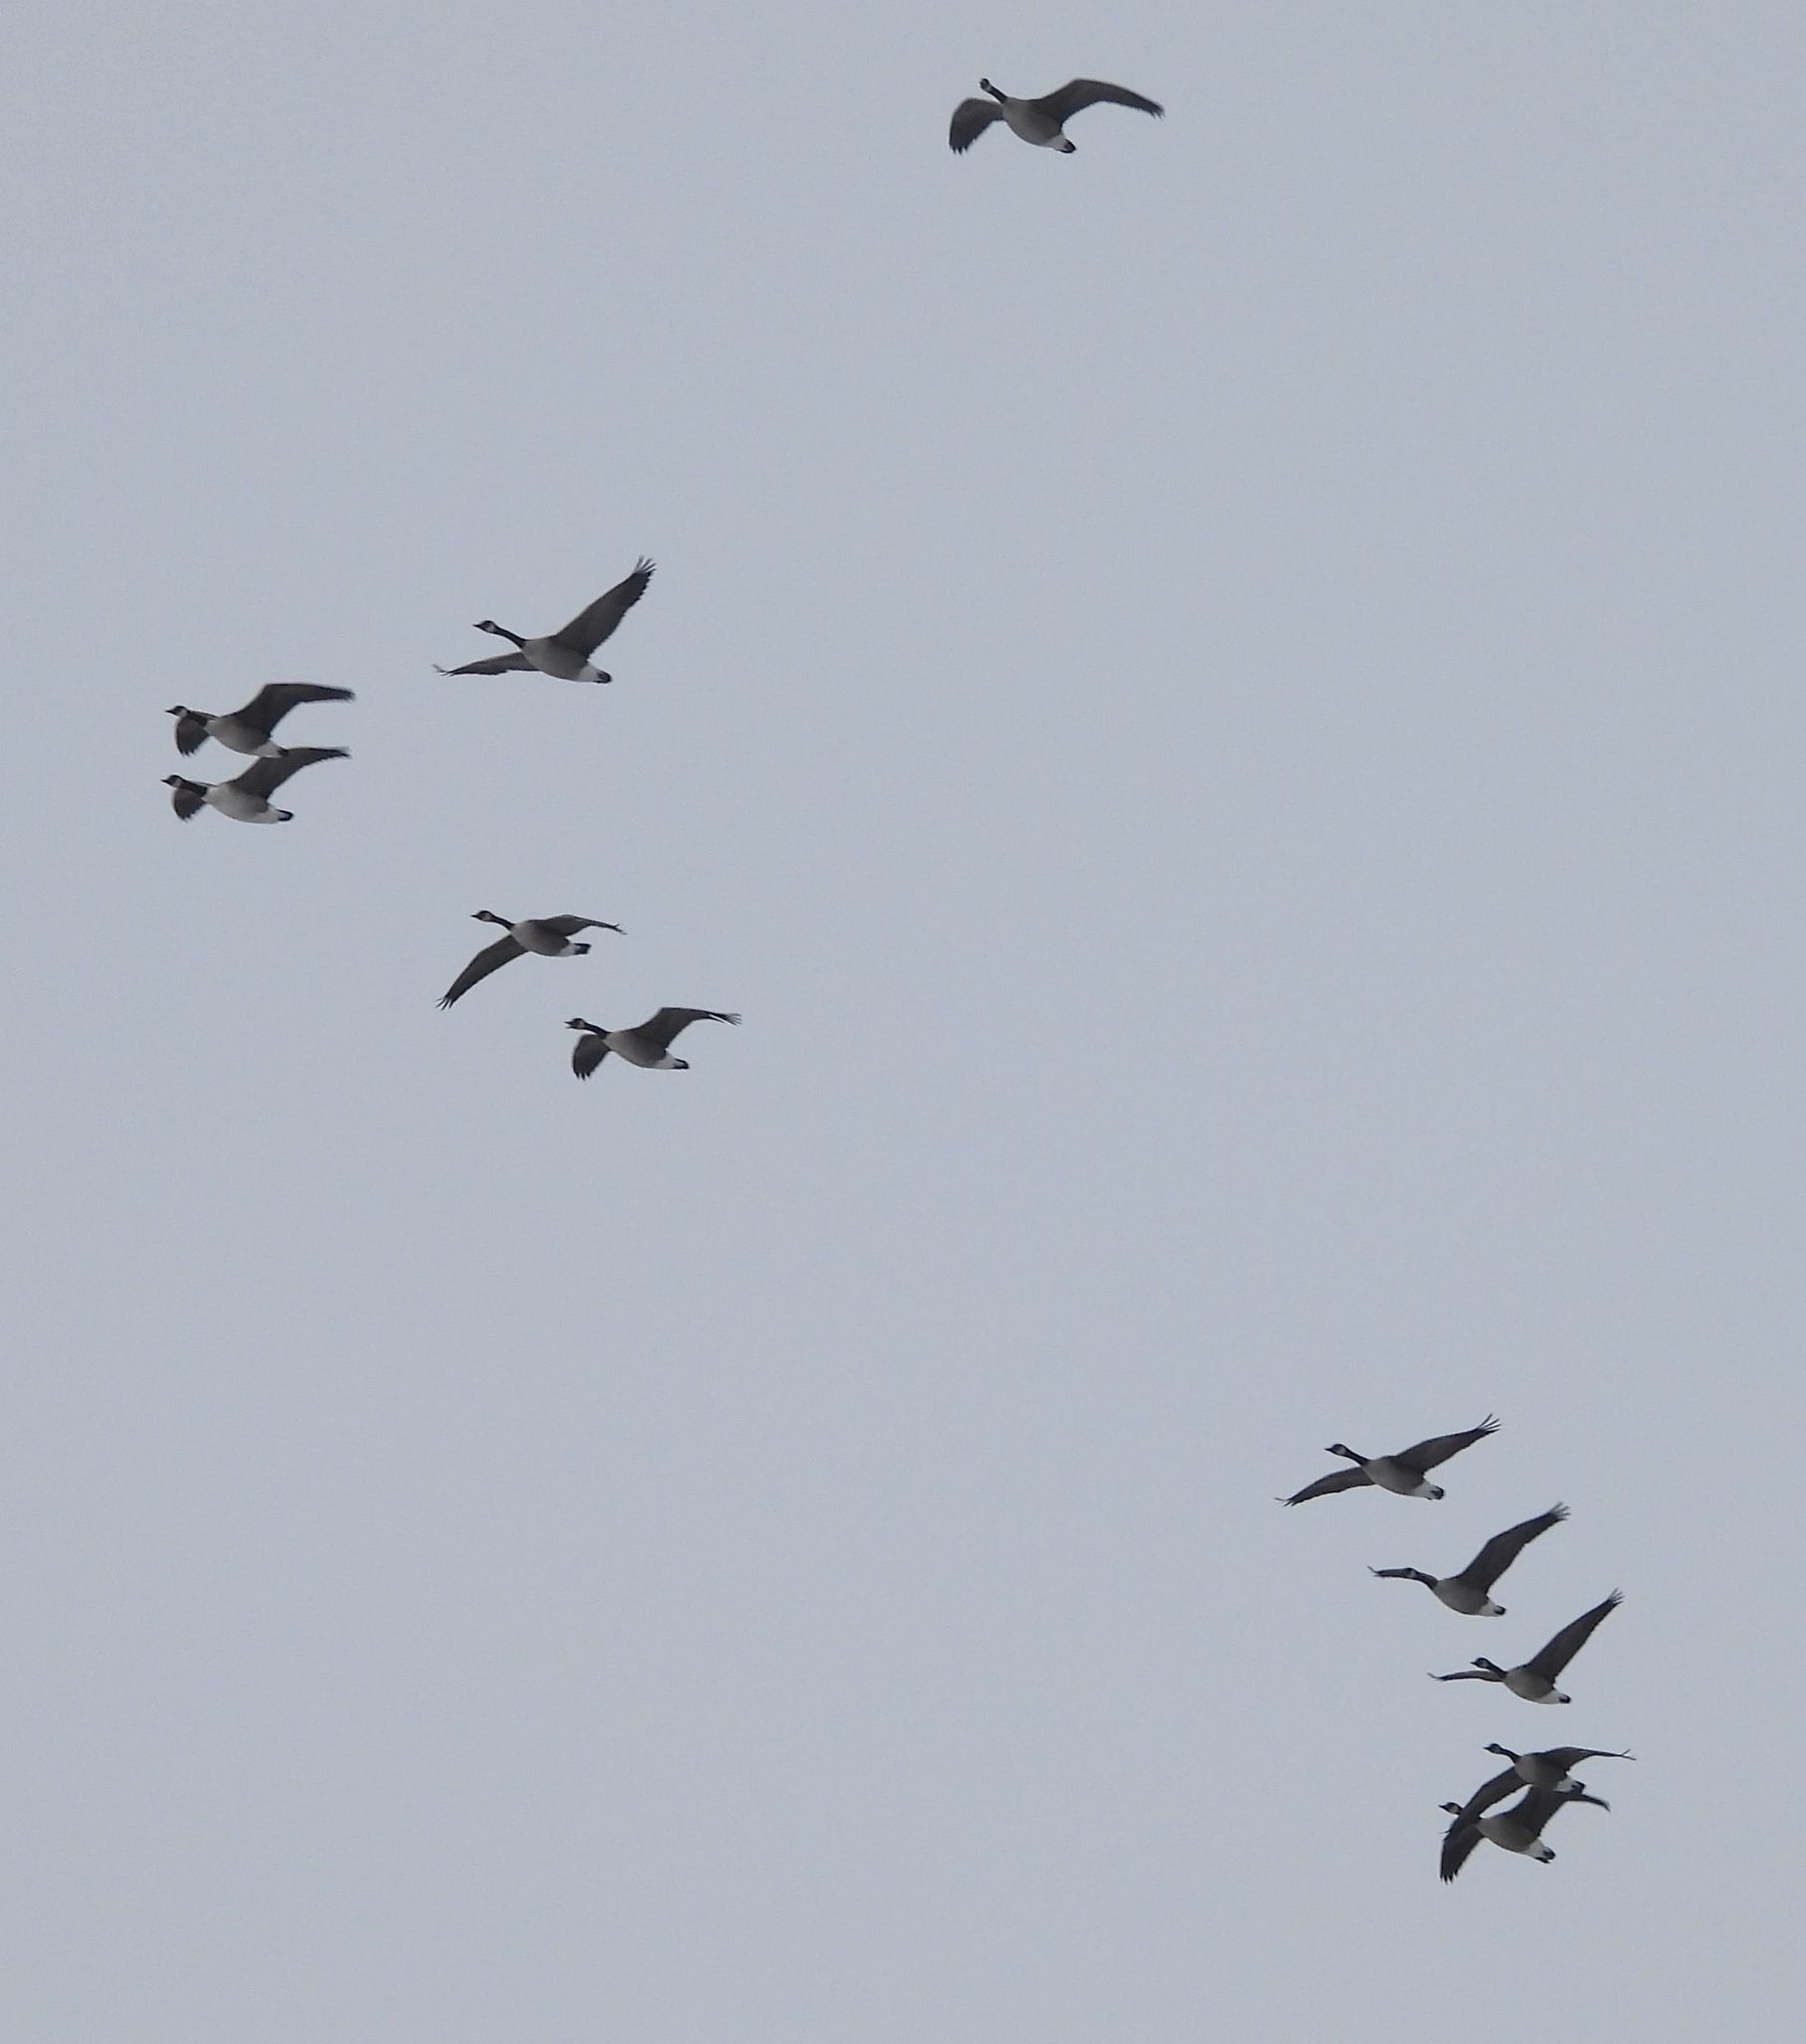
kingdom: Animalia
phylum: Chordata
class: Aves
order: Anseriformes
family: Anatidae
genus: Branta
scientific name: Branta canadensis
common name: Canada goose
